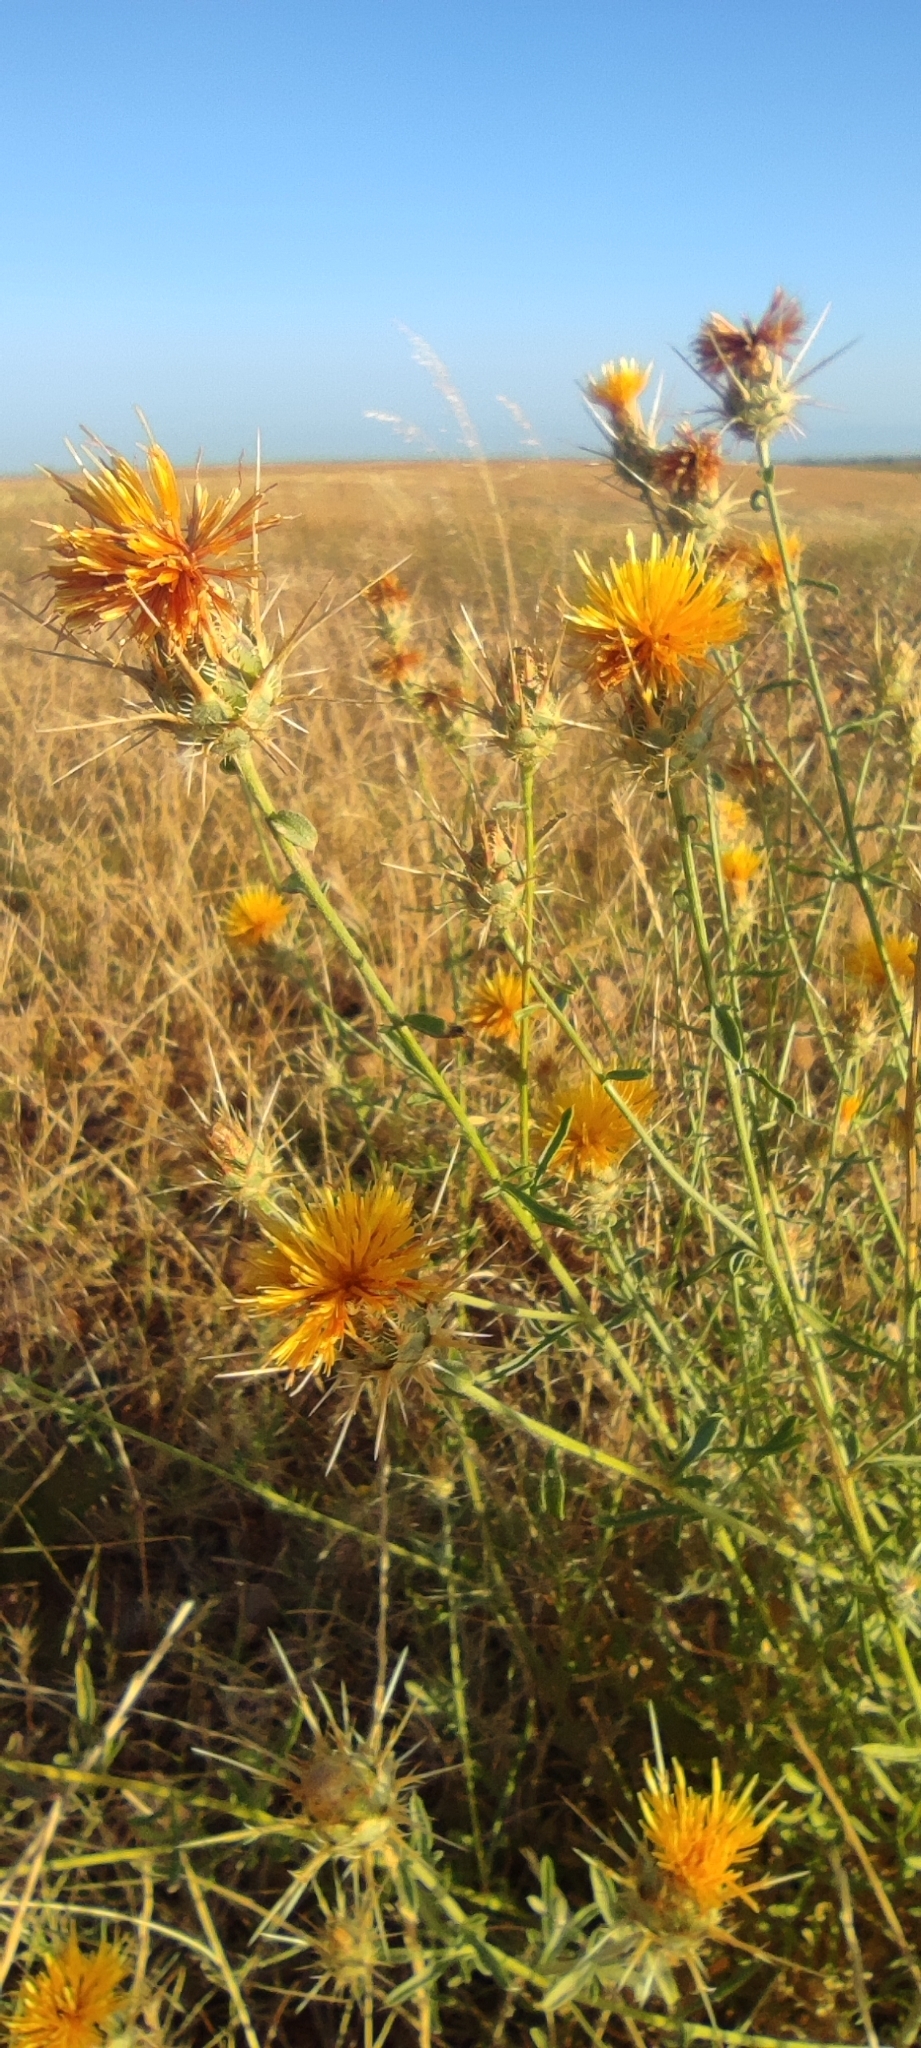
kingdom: Plantae
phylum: Tracheophyta
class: Magnoliopsida
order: Asterales
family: Asteraceae
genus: Centaurea
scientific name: Centaurea ornata
